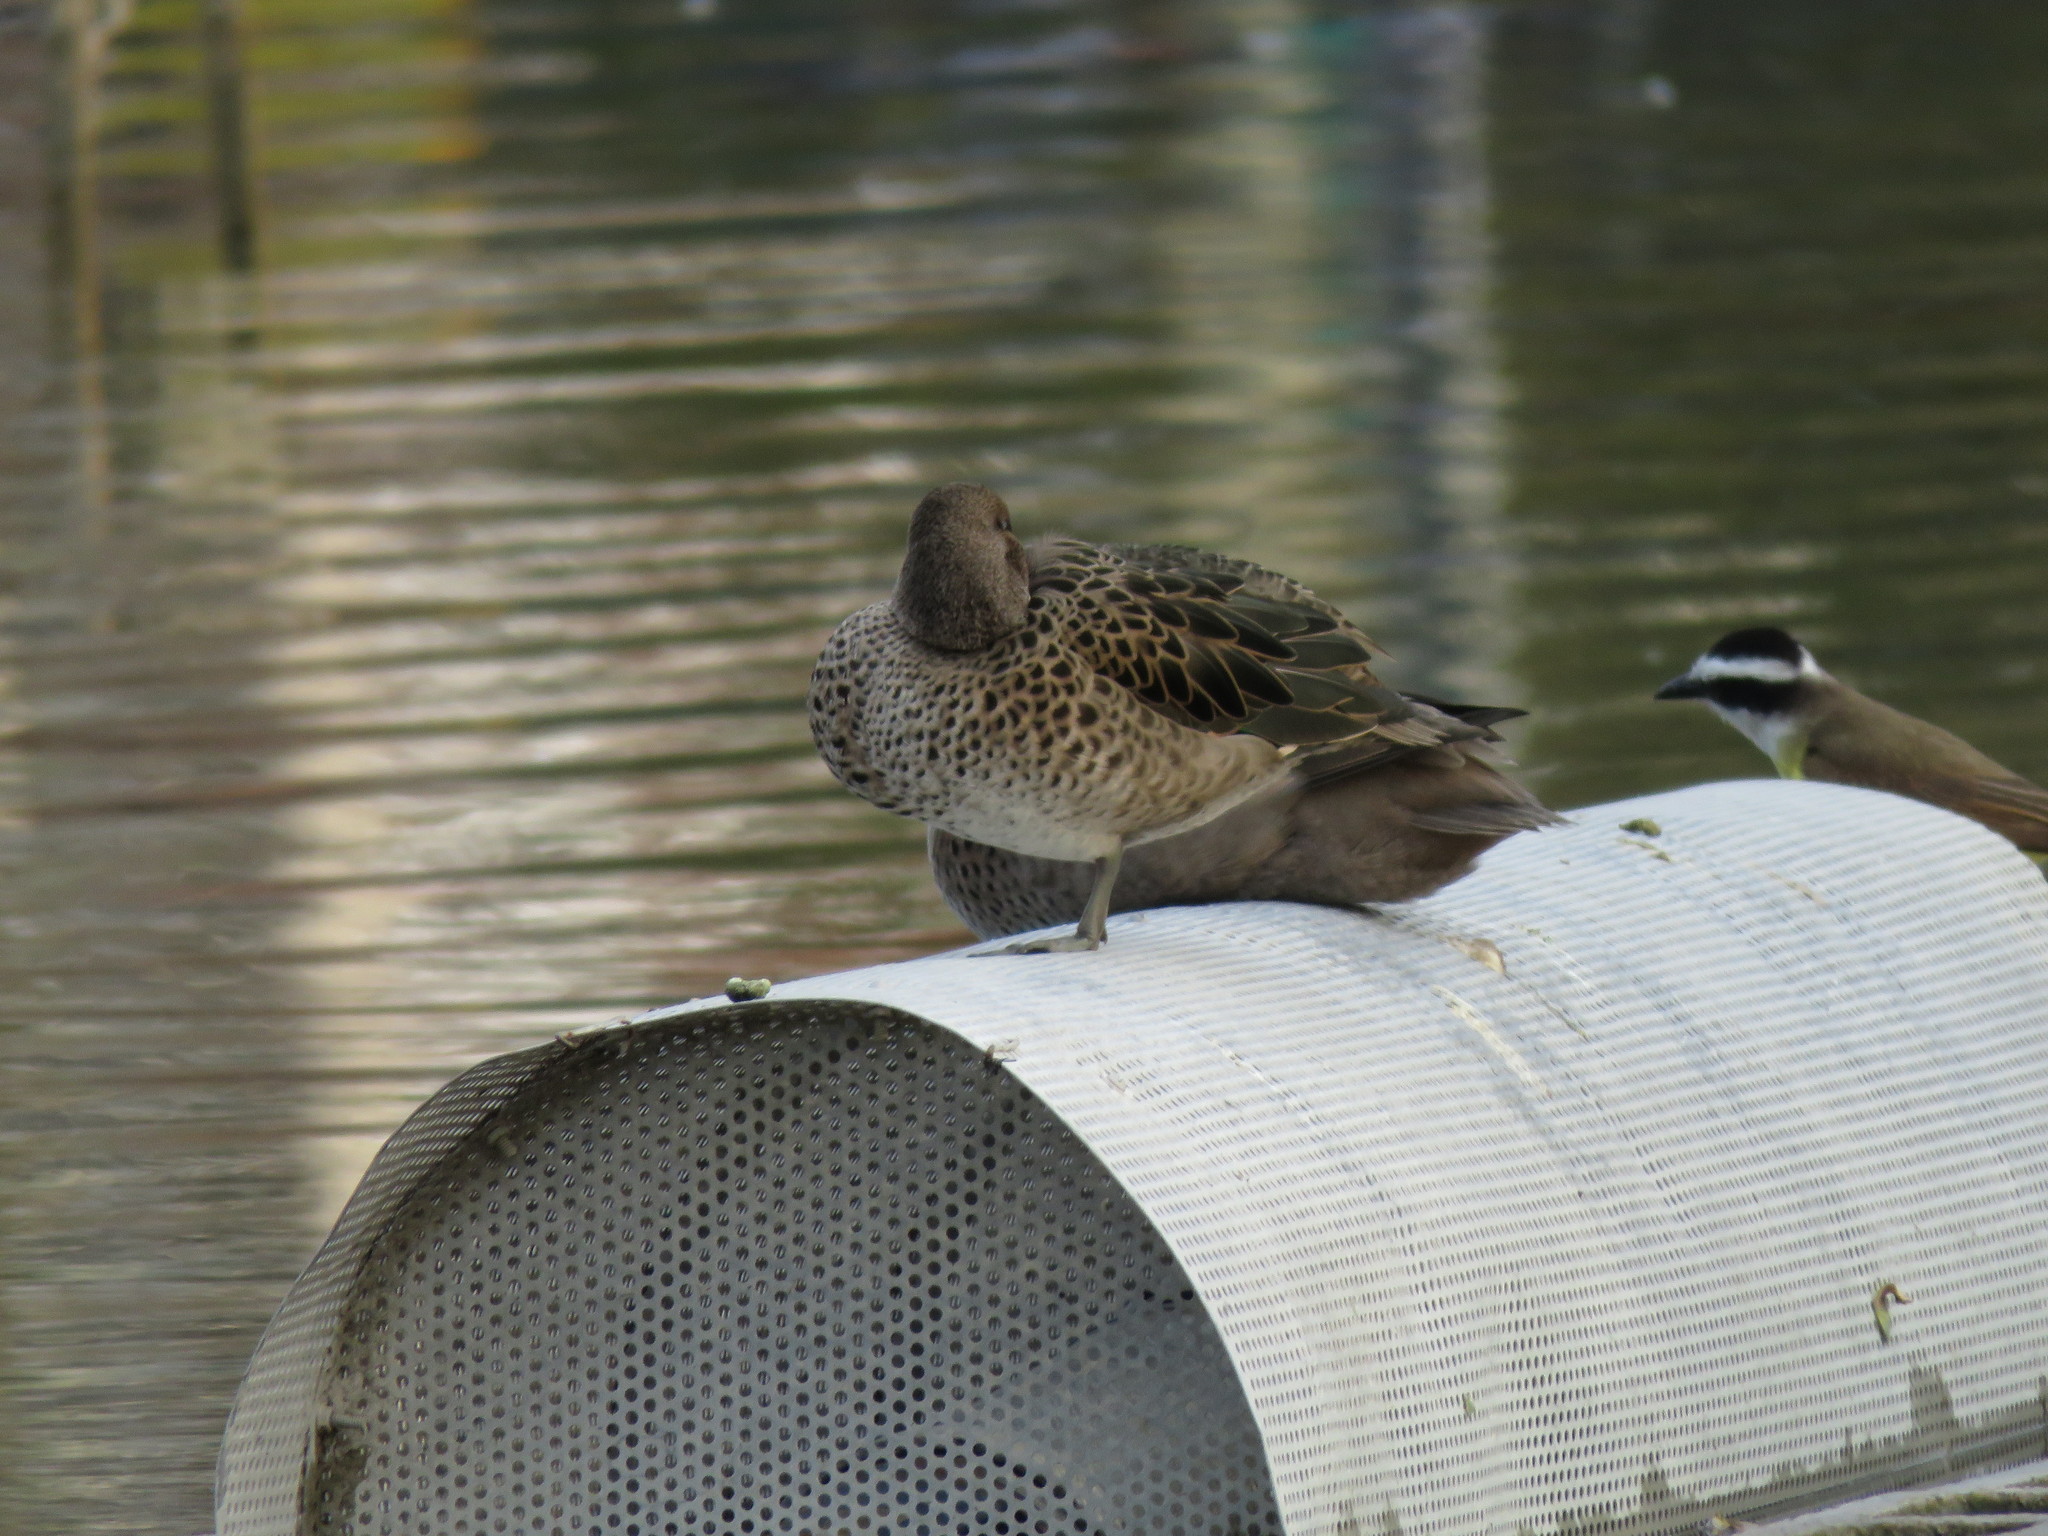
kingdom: Animalia
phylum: Chordata
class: Aves
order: Anseriformes
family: Anatidae
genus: Anas
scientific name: Anas flavirostris
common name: Yellow-billed teal
